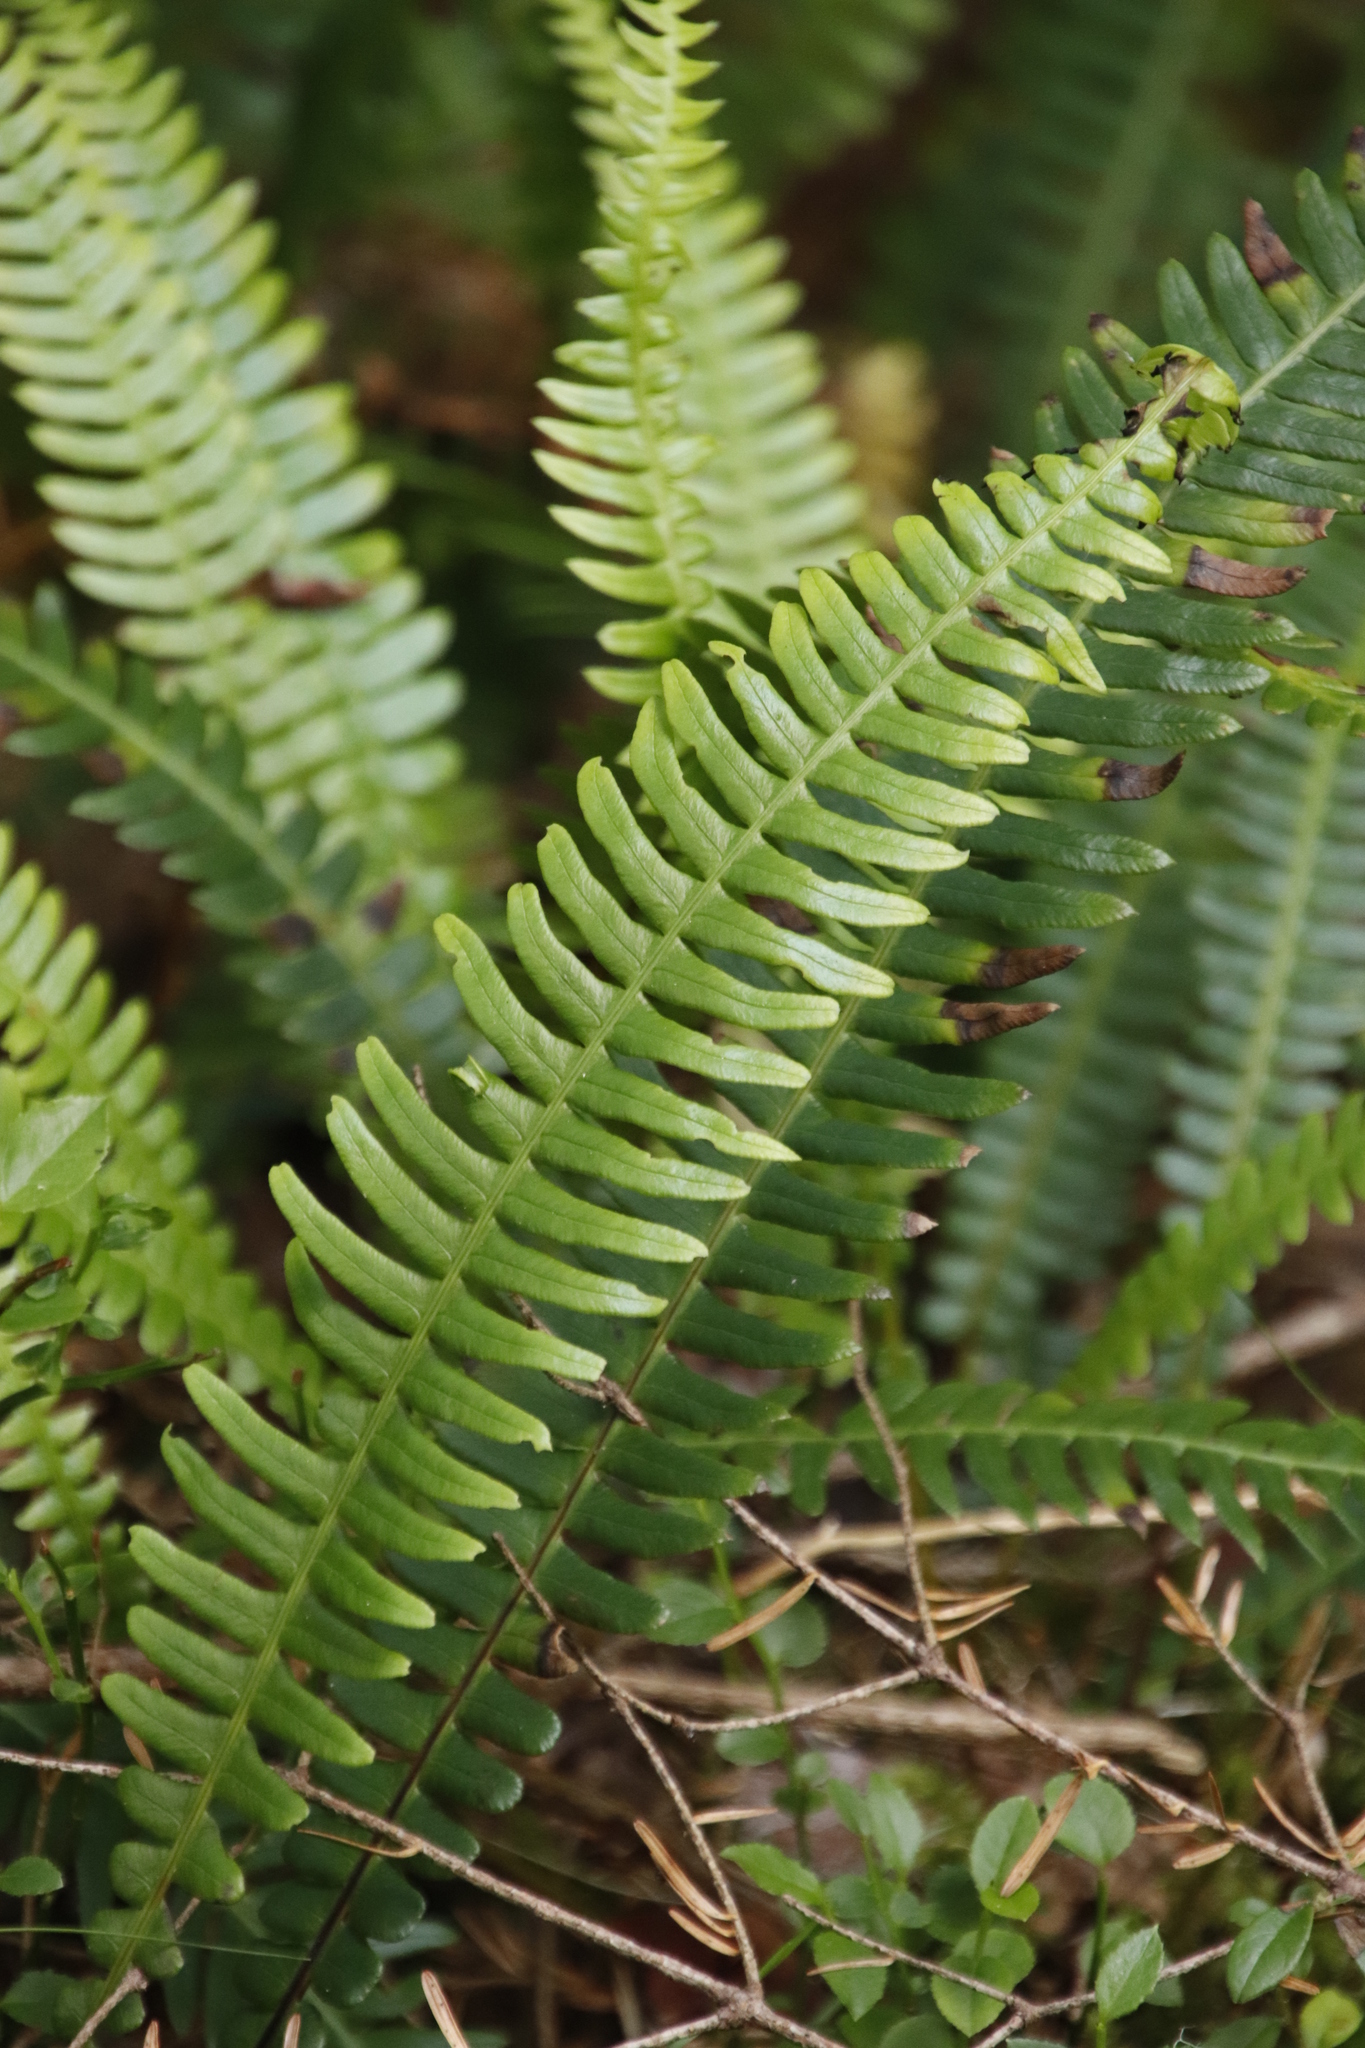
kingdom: Plantae
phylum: Tracheophyta
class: Polypodiopsida
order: Polypodiales
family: Blechnaceae
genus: Struthiopteris
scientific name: Struthiopteris spicant
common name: Deer fern
